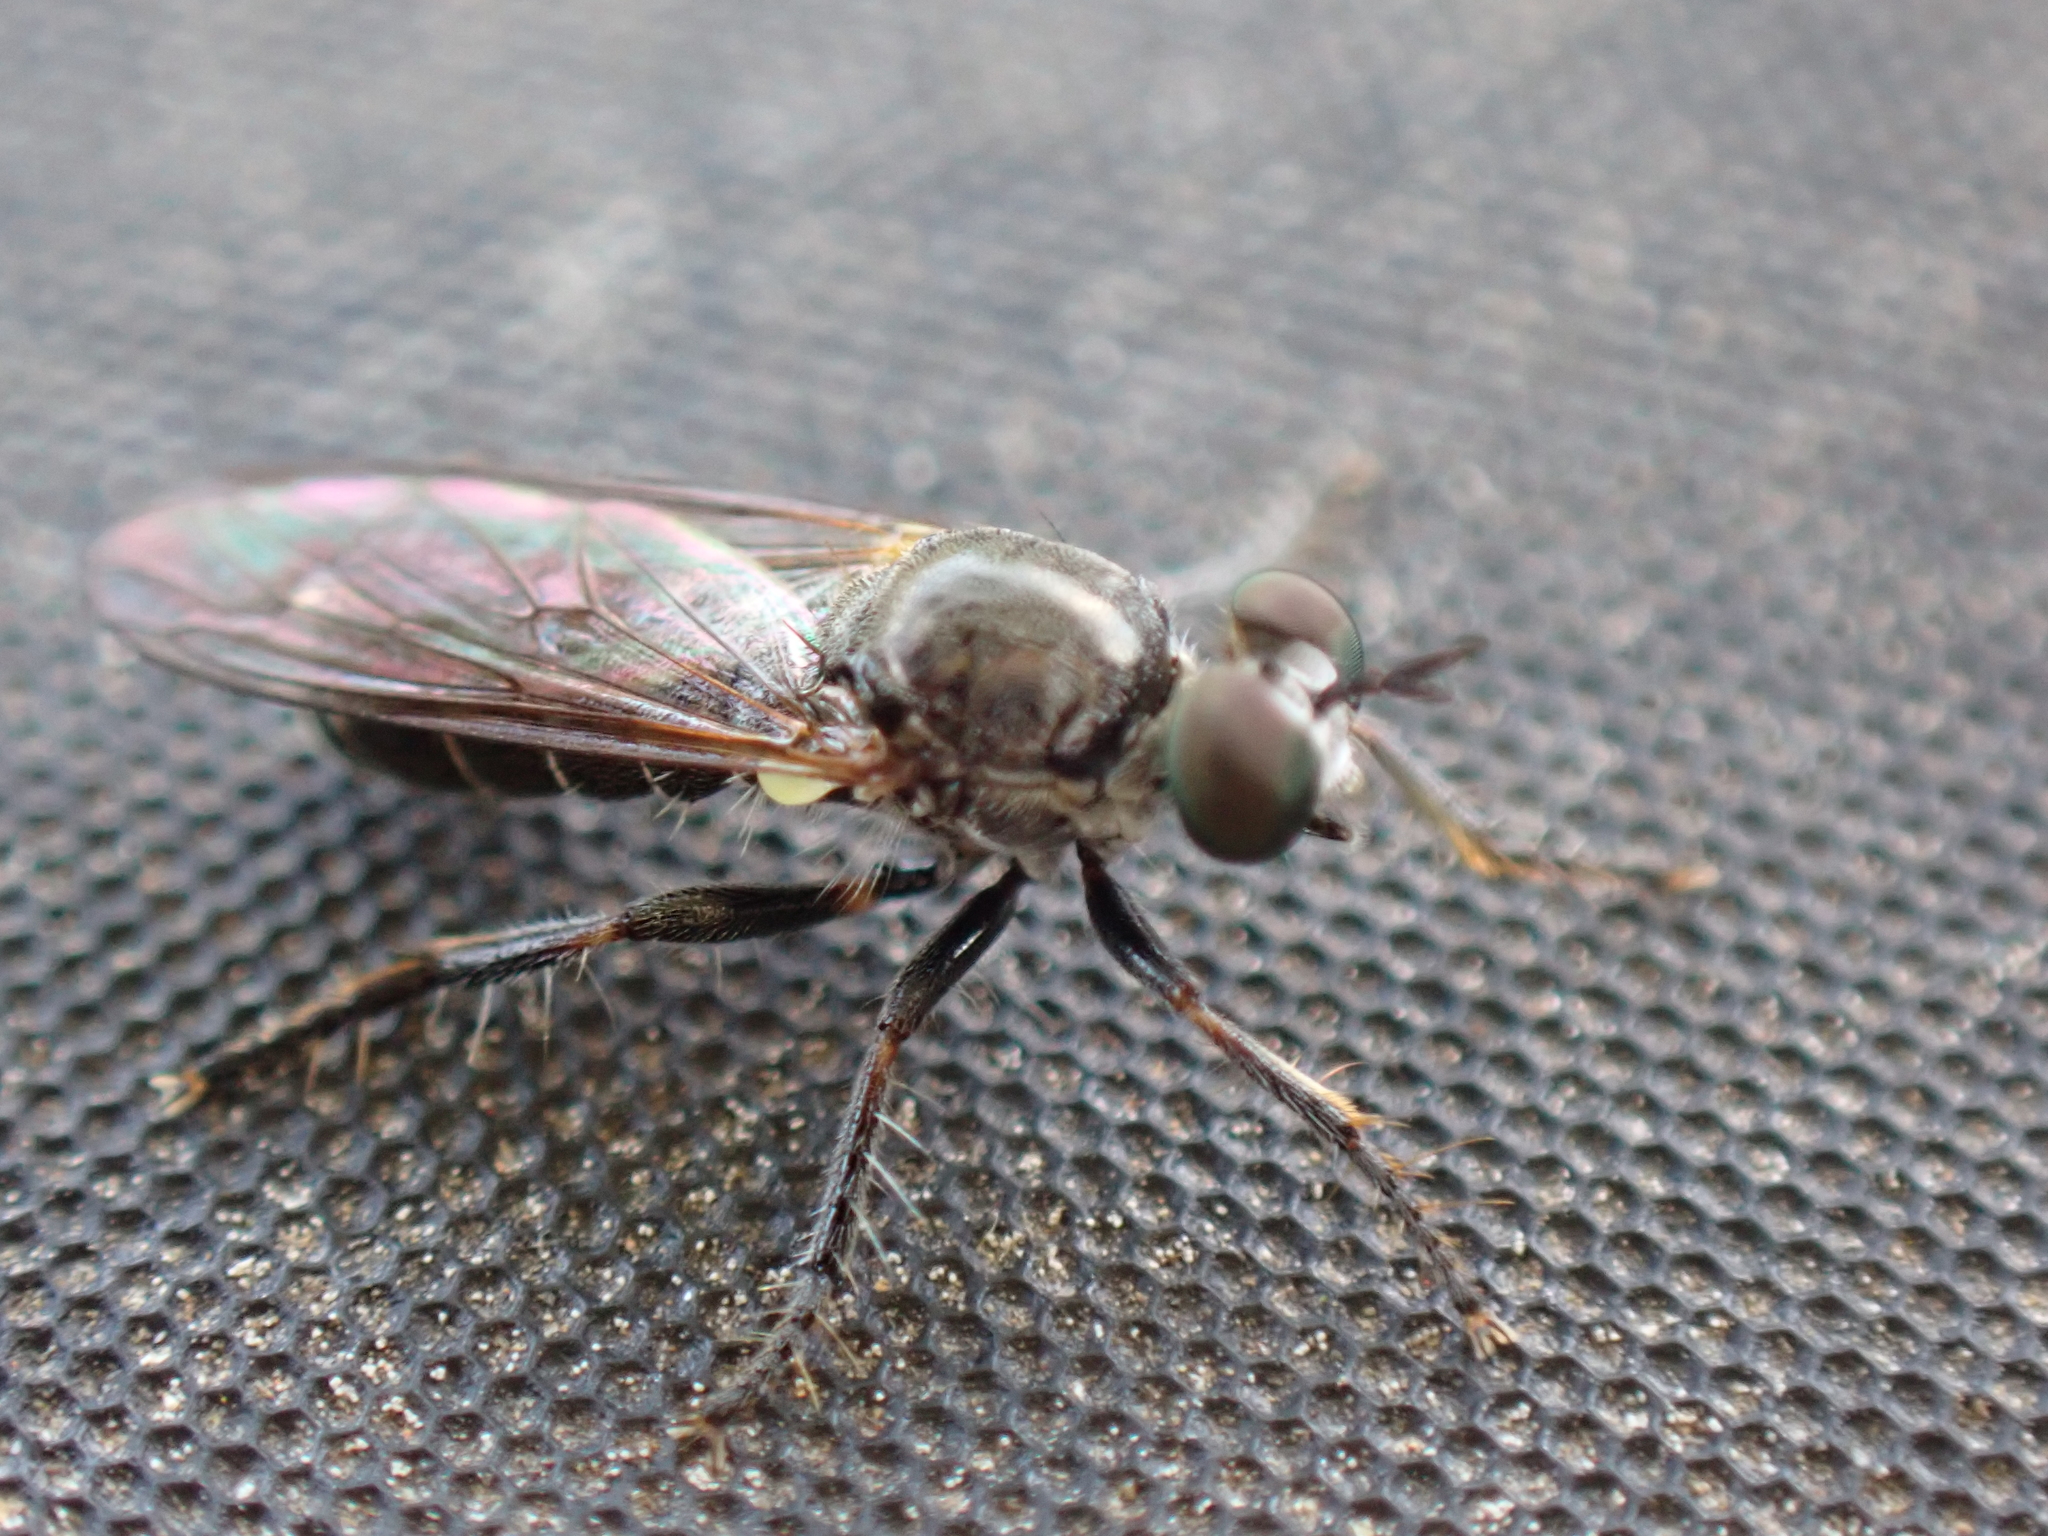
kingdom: Animalia
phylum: Arthropoda
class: Insecta
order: Diptera
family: Asilidae
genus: Atomosia
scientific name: Atomosia puella
